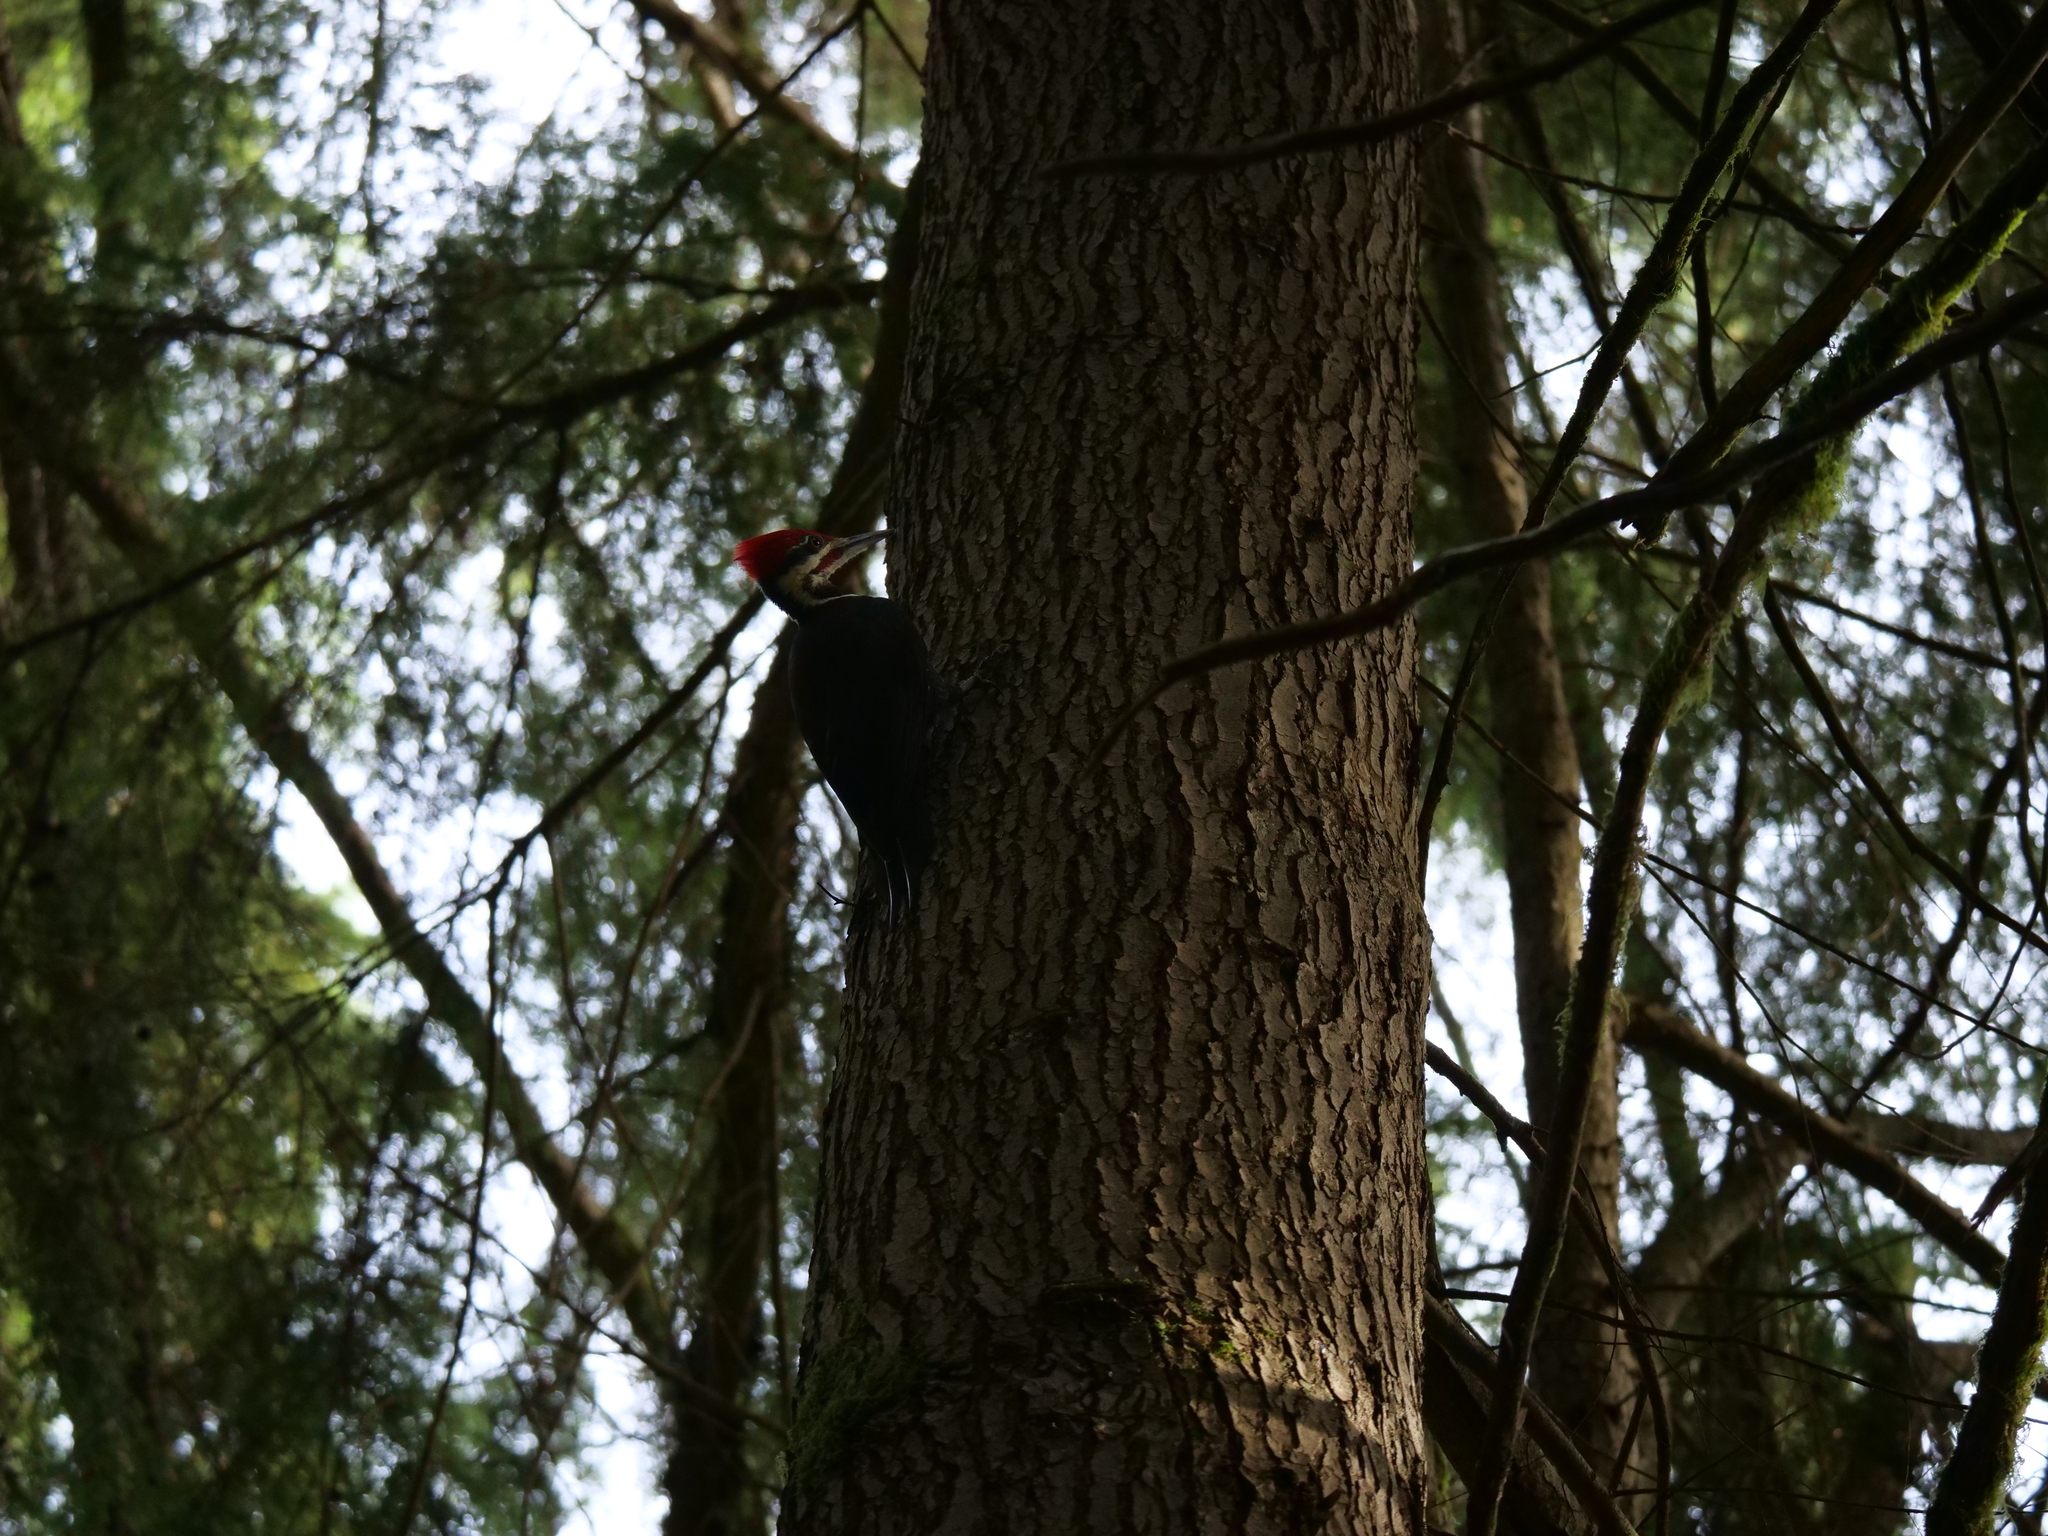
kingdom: Animalia
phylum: Chordata
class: Aves
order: Piciformes
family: Picidae
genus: Dryocopus
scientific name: Dryocopus pileatus
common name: Pileated woodpecker
